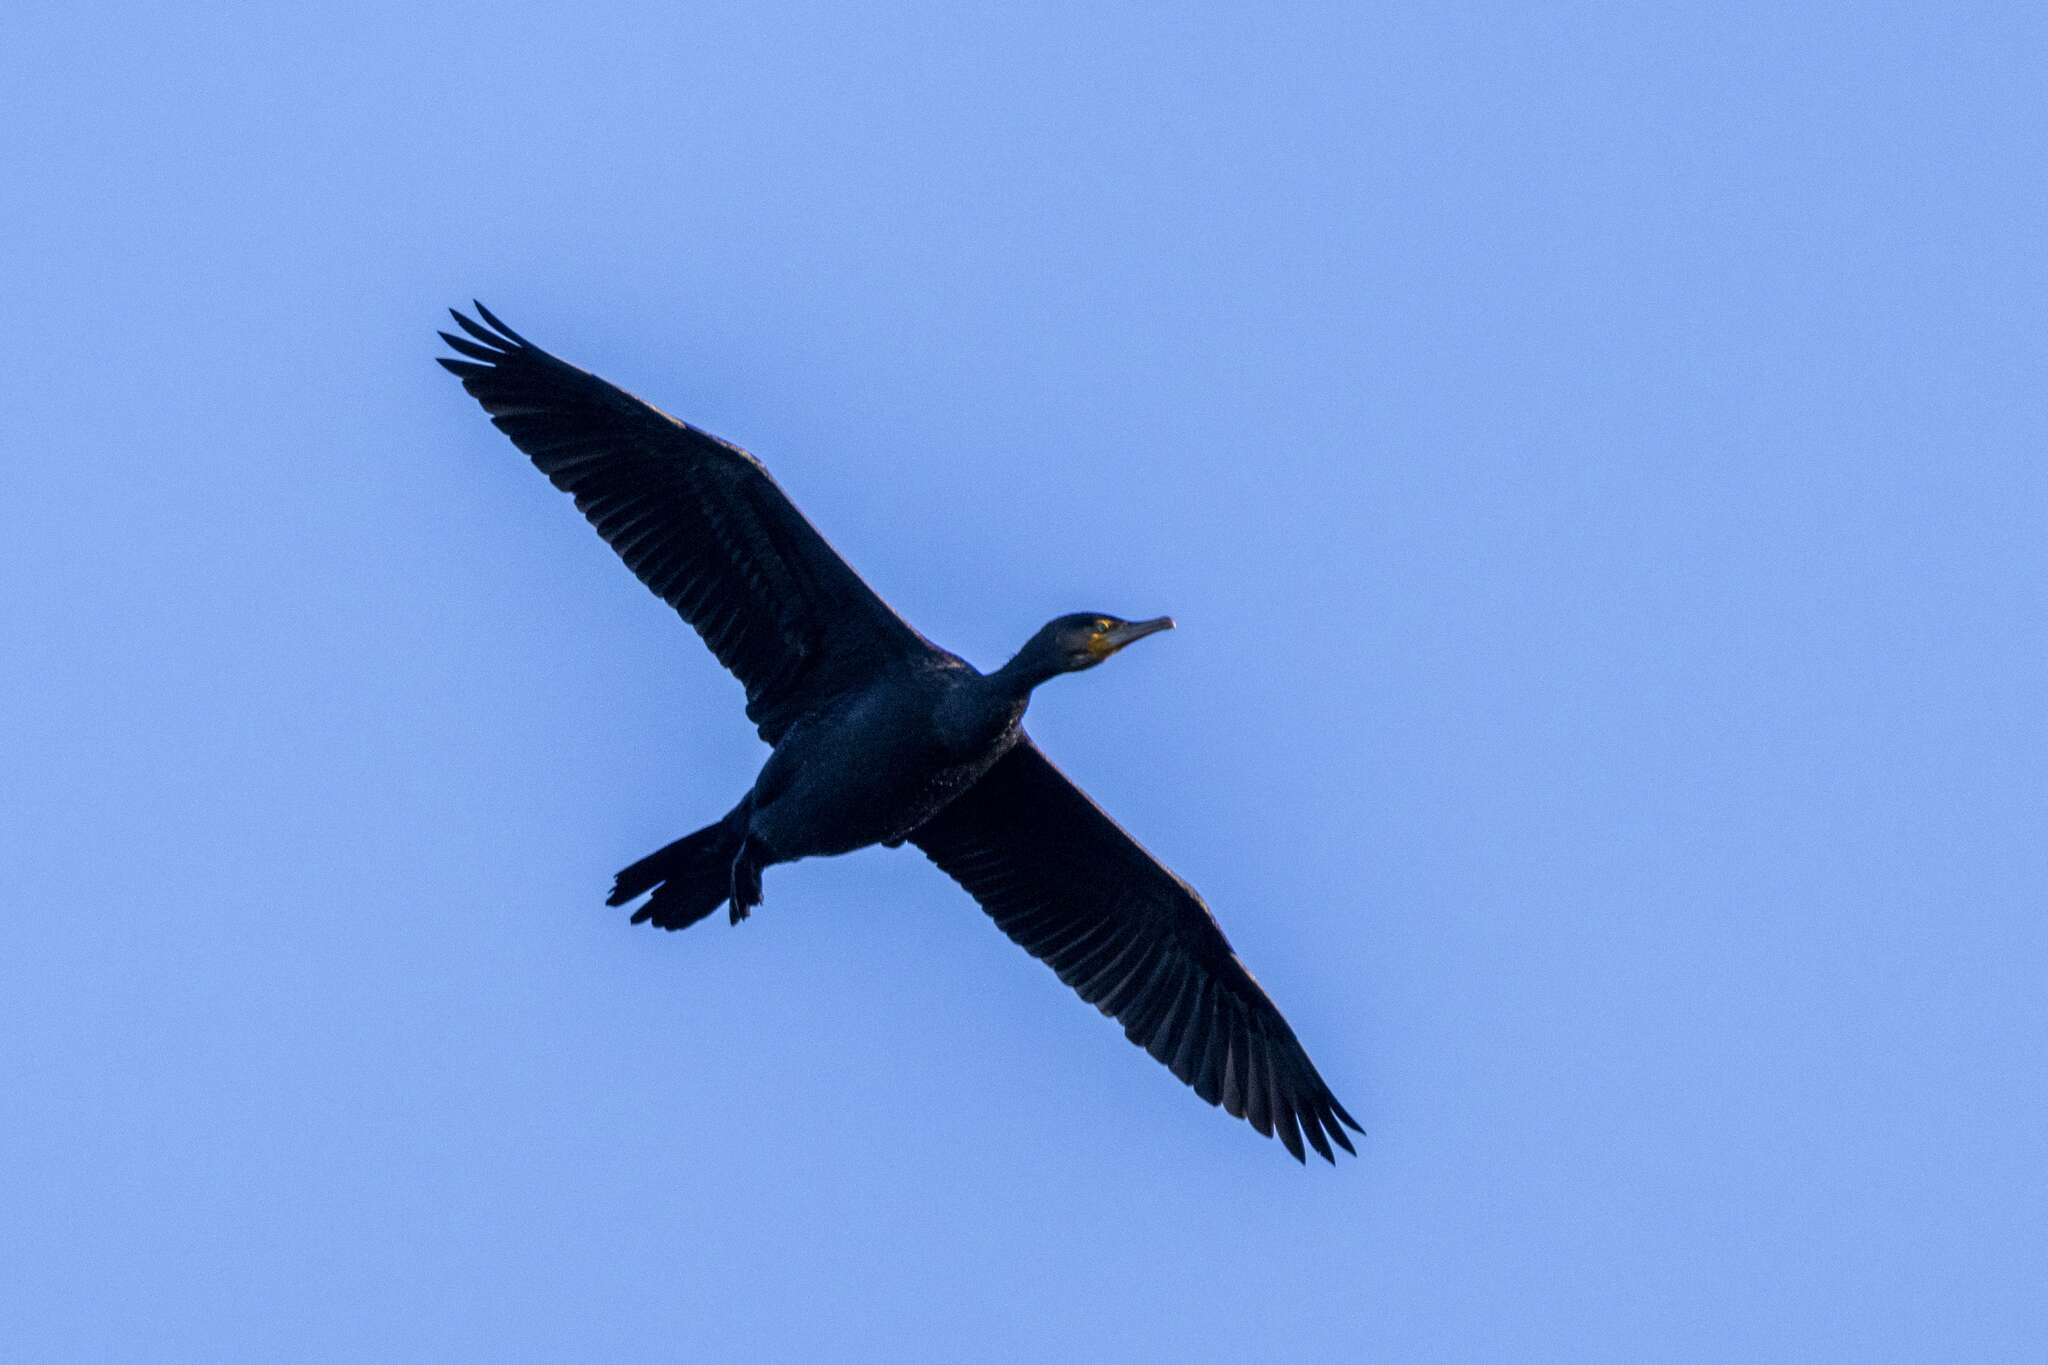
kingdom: Animalia
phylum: Chordata
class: Aves
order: Suliformes
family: Phalacrocoracidae
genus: Phalacrocorax
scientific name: Phalacrocorax carbo
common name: Great cormorant
